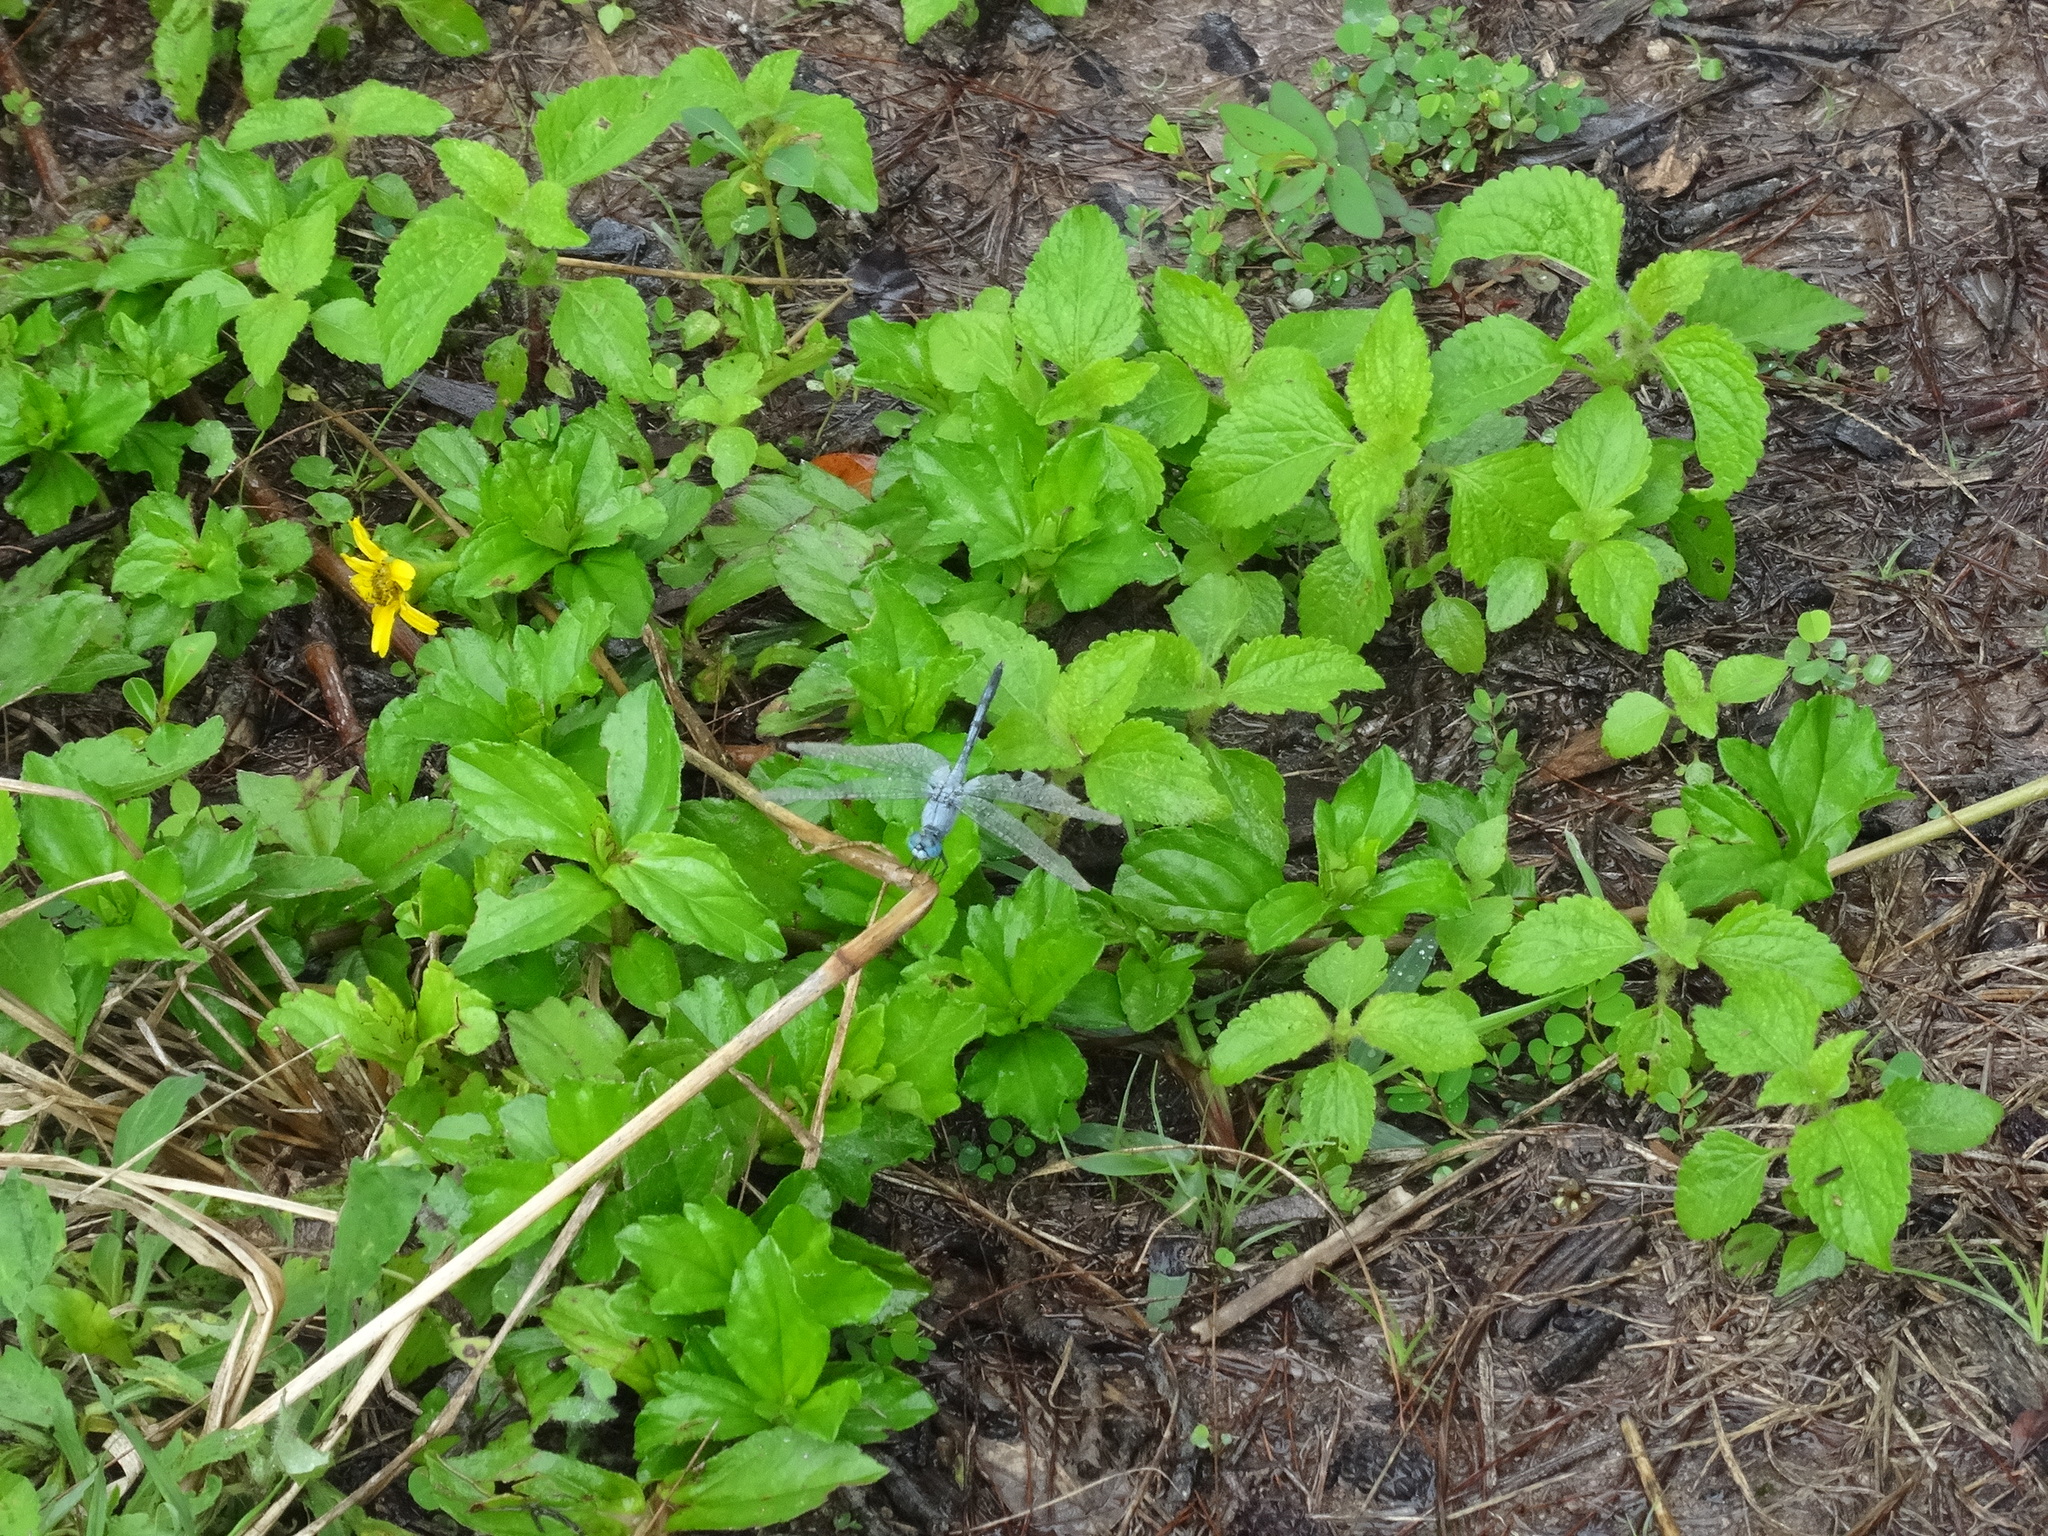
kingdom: Animalia
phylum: Arthropoda
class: Insecta
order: Odonata
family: Libellulidae
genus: Diplacodes
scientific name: Diplacodes trivialis
